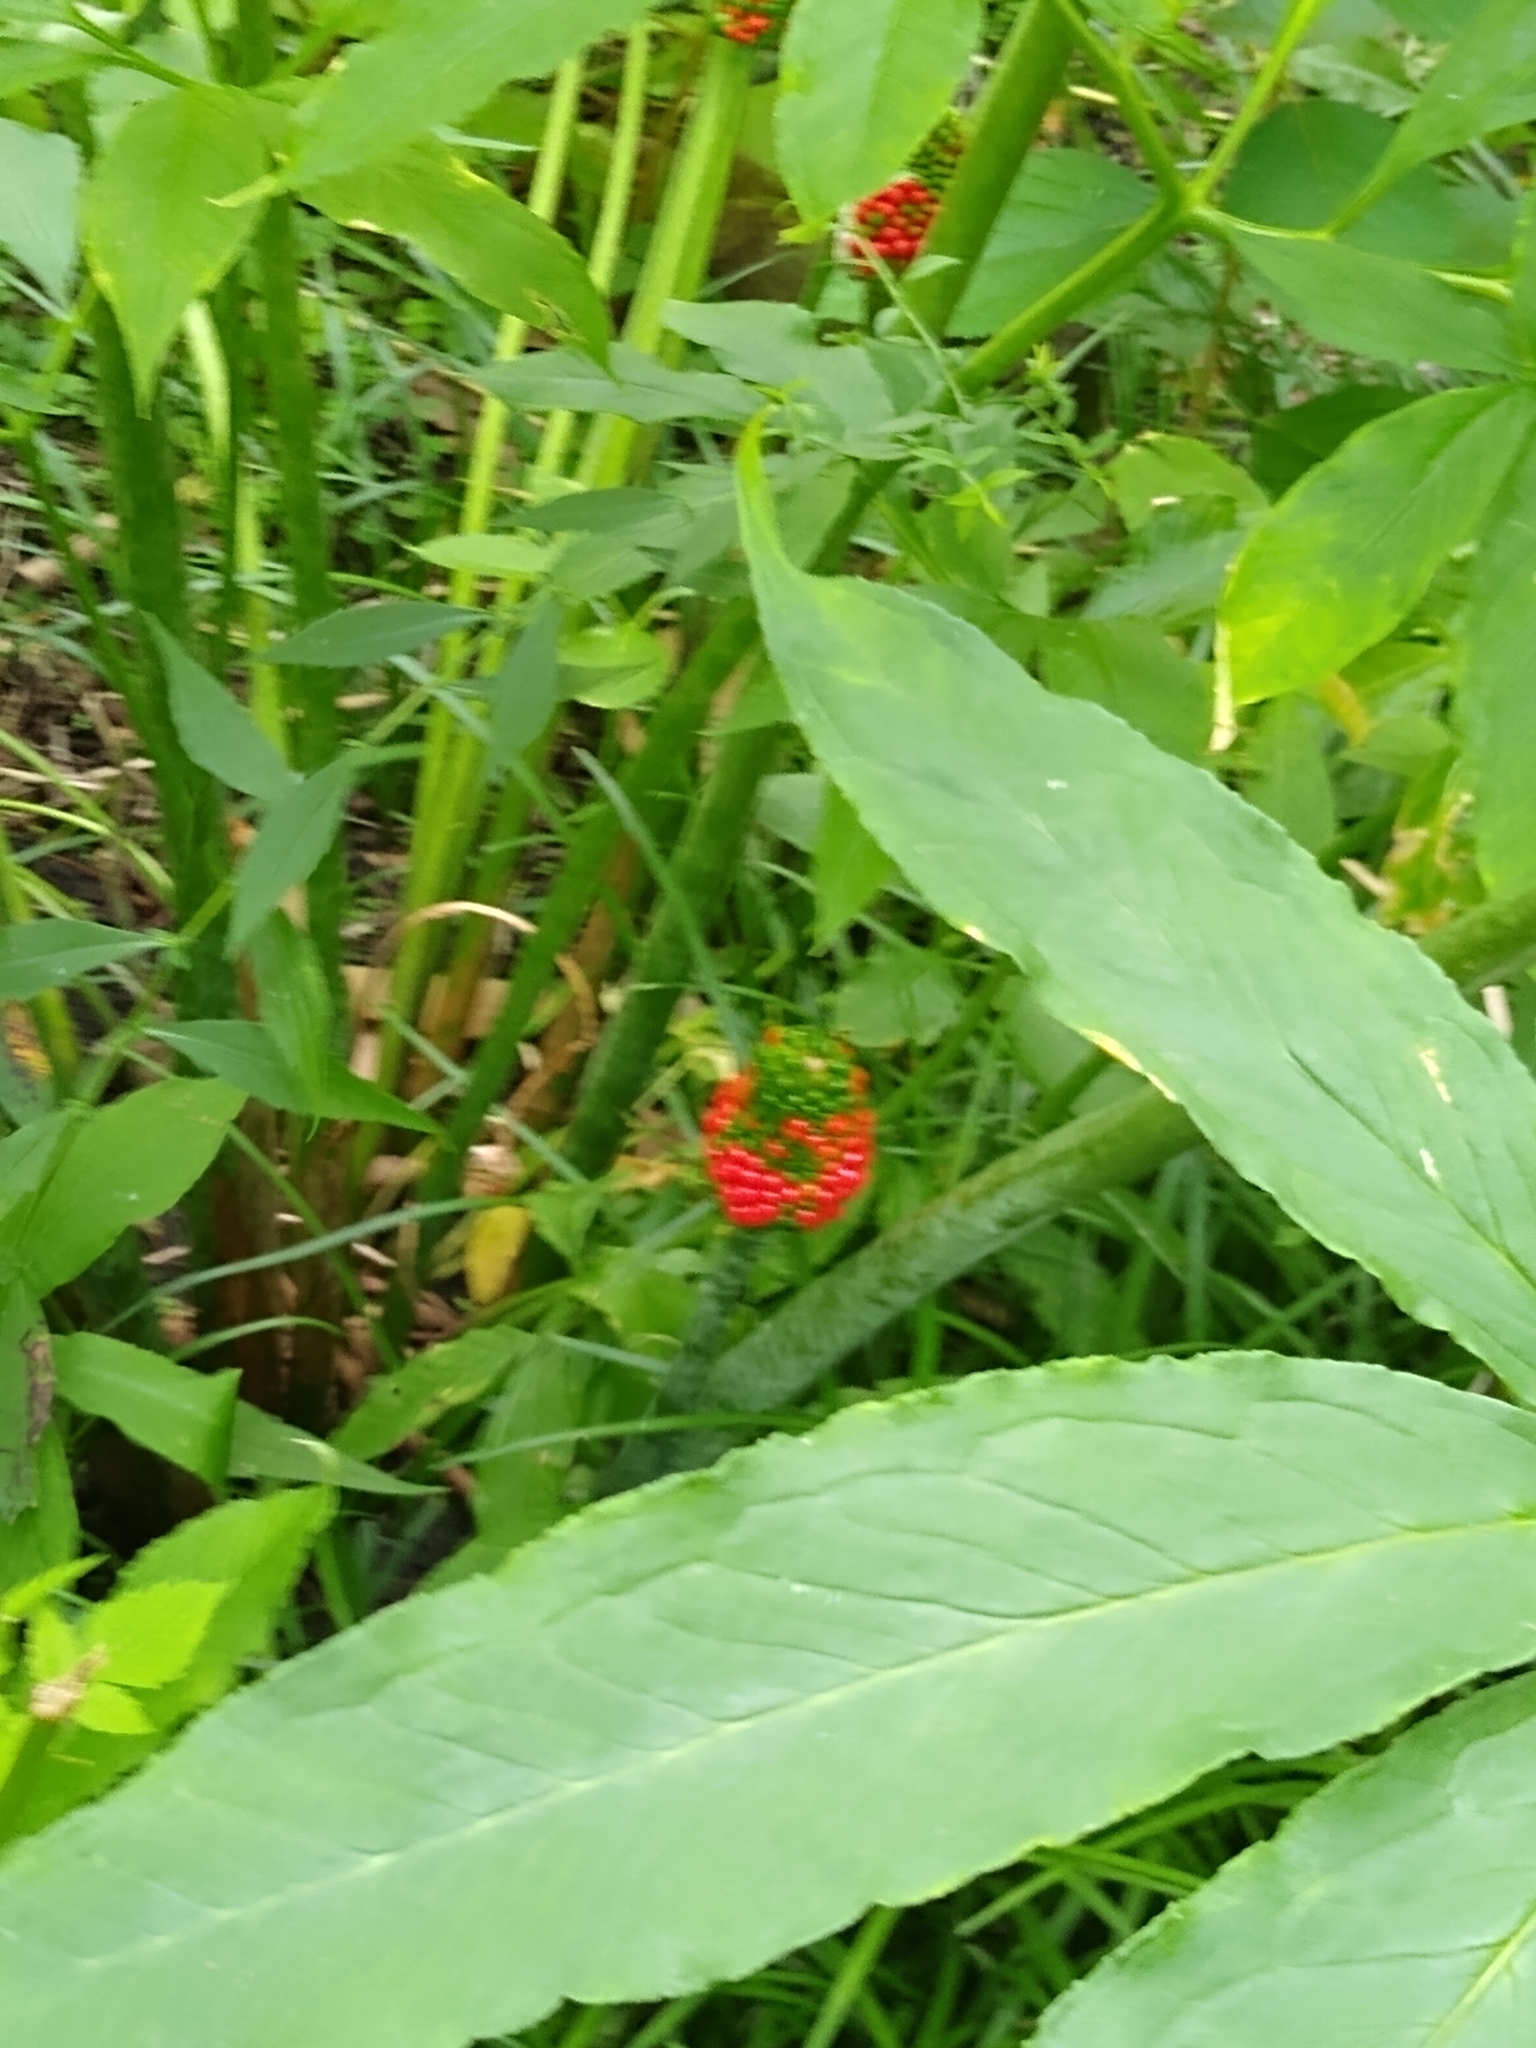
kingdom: Plantae
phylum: Tracheophyta
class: Liliopsida
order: Alismatales
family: Araceae
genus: Arisaema
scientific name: Arisaema dracontium
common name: Dragon-arum
